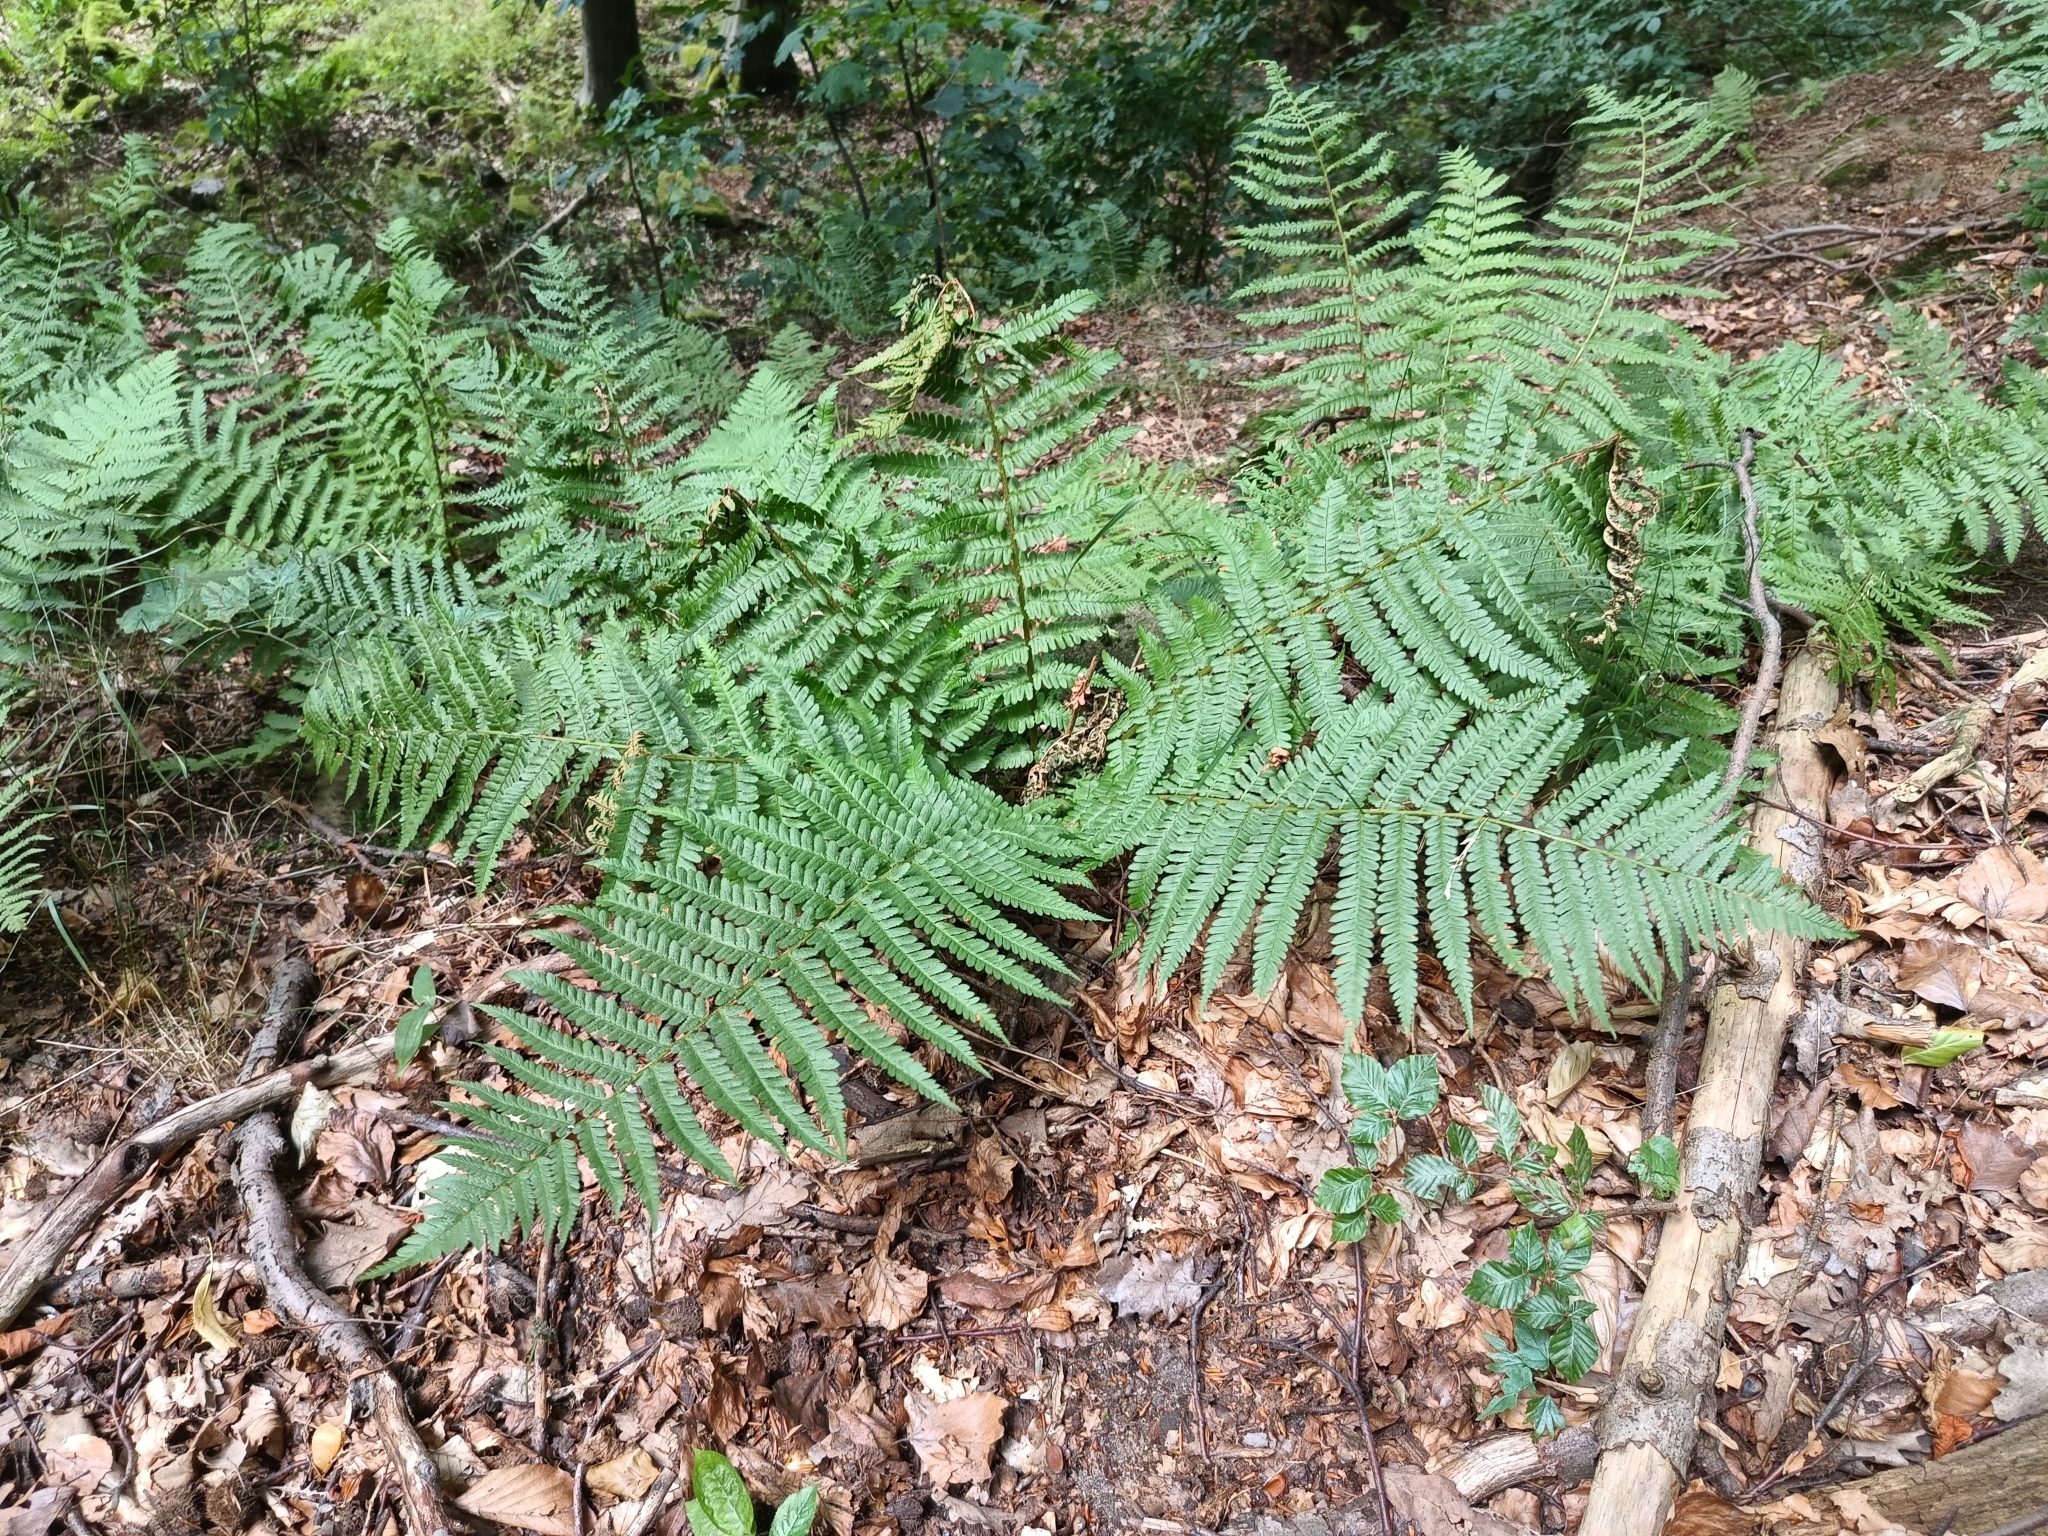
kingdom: Plantae
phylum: Tracheophyta
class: Polypodiopsida
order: Polypodiales
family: Dryopteridaceae
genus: Dryopteris
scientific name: Dryopteris filix-mas
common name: Male fern
